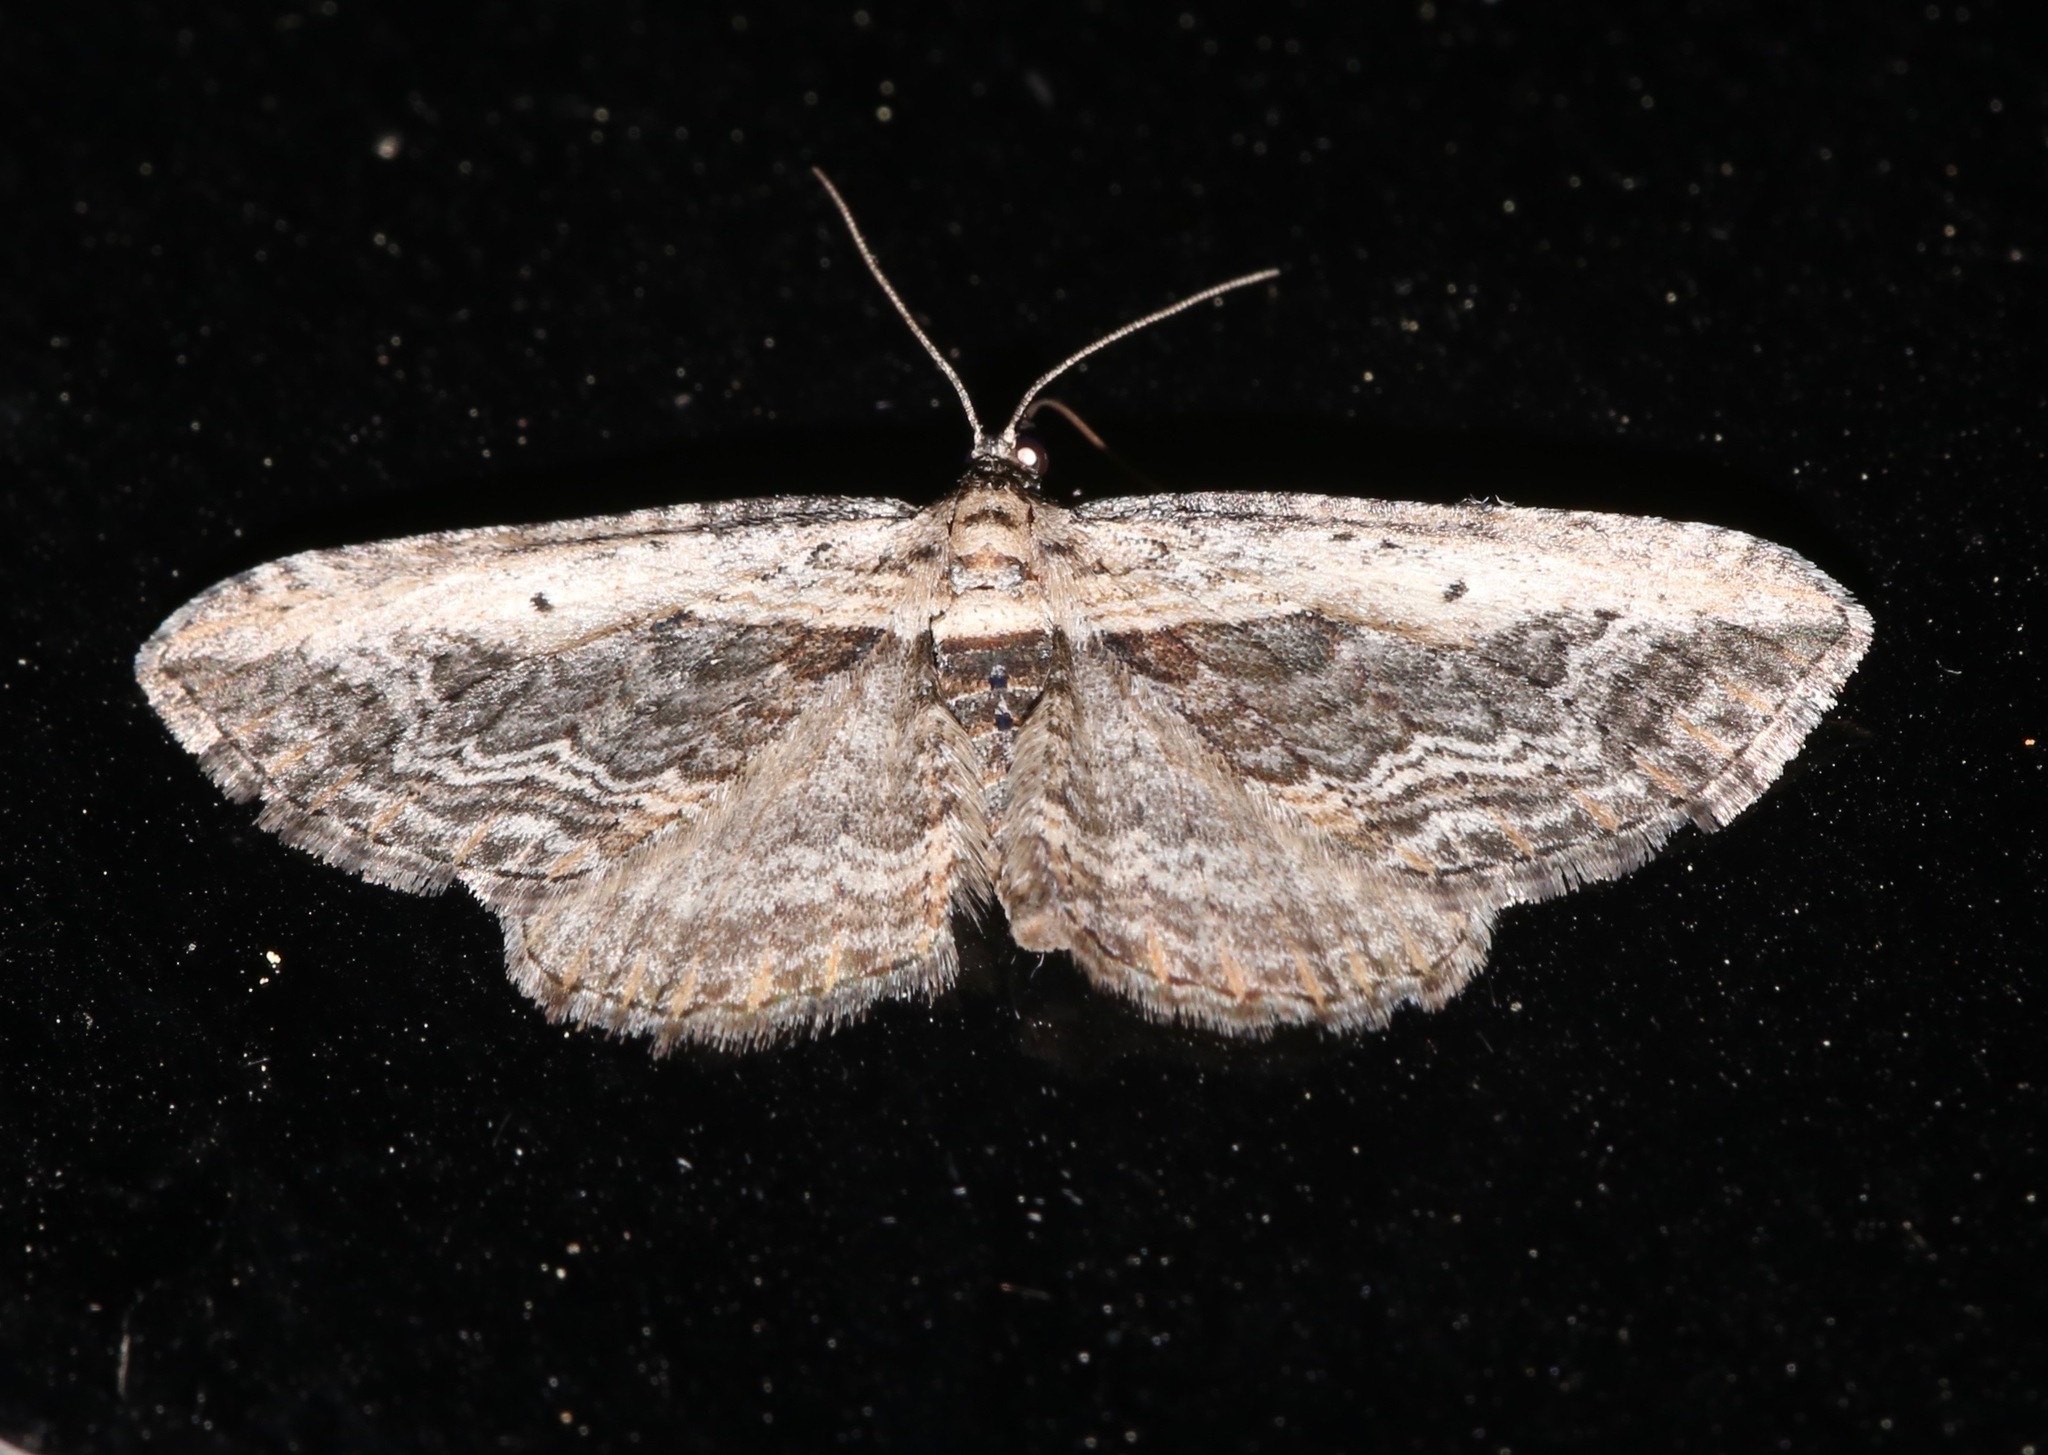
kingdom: Animalia
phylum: Arthropoda
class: Insecta
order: Lepidoptera
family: Geometridae
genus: Horisme
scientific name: Horisme intestinata
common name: Brown bark carpet
